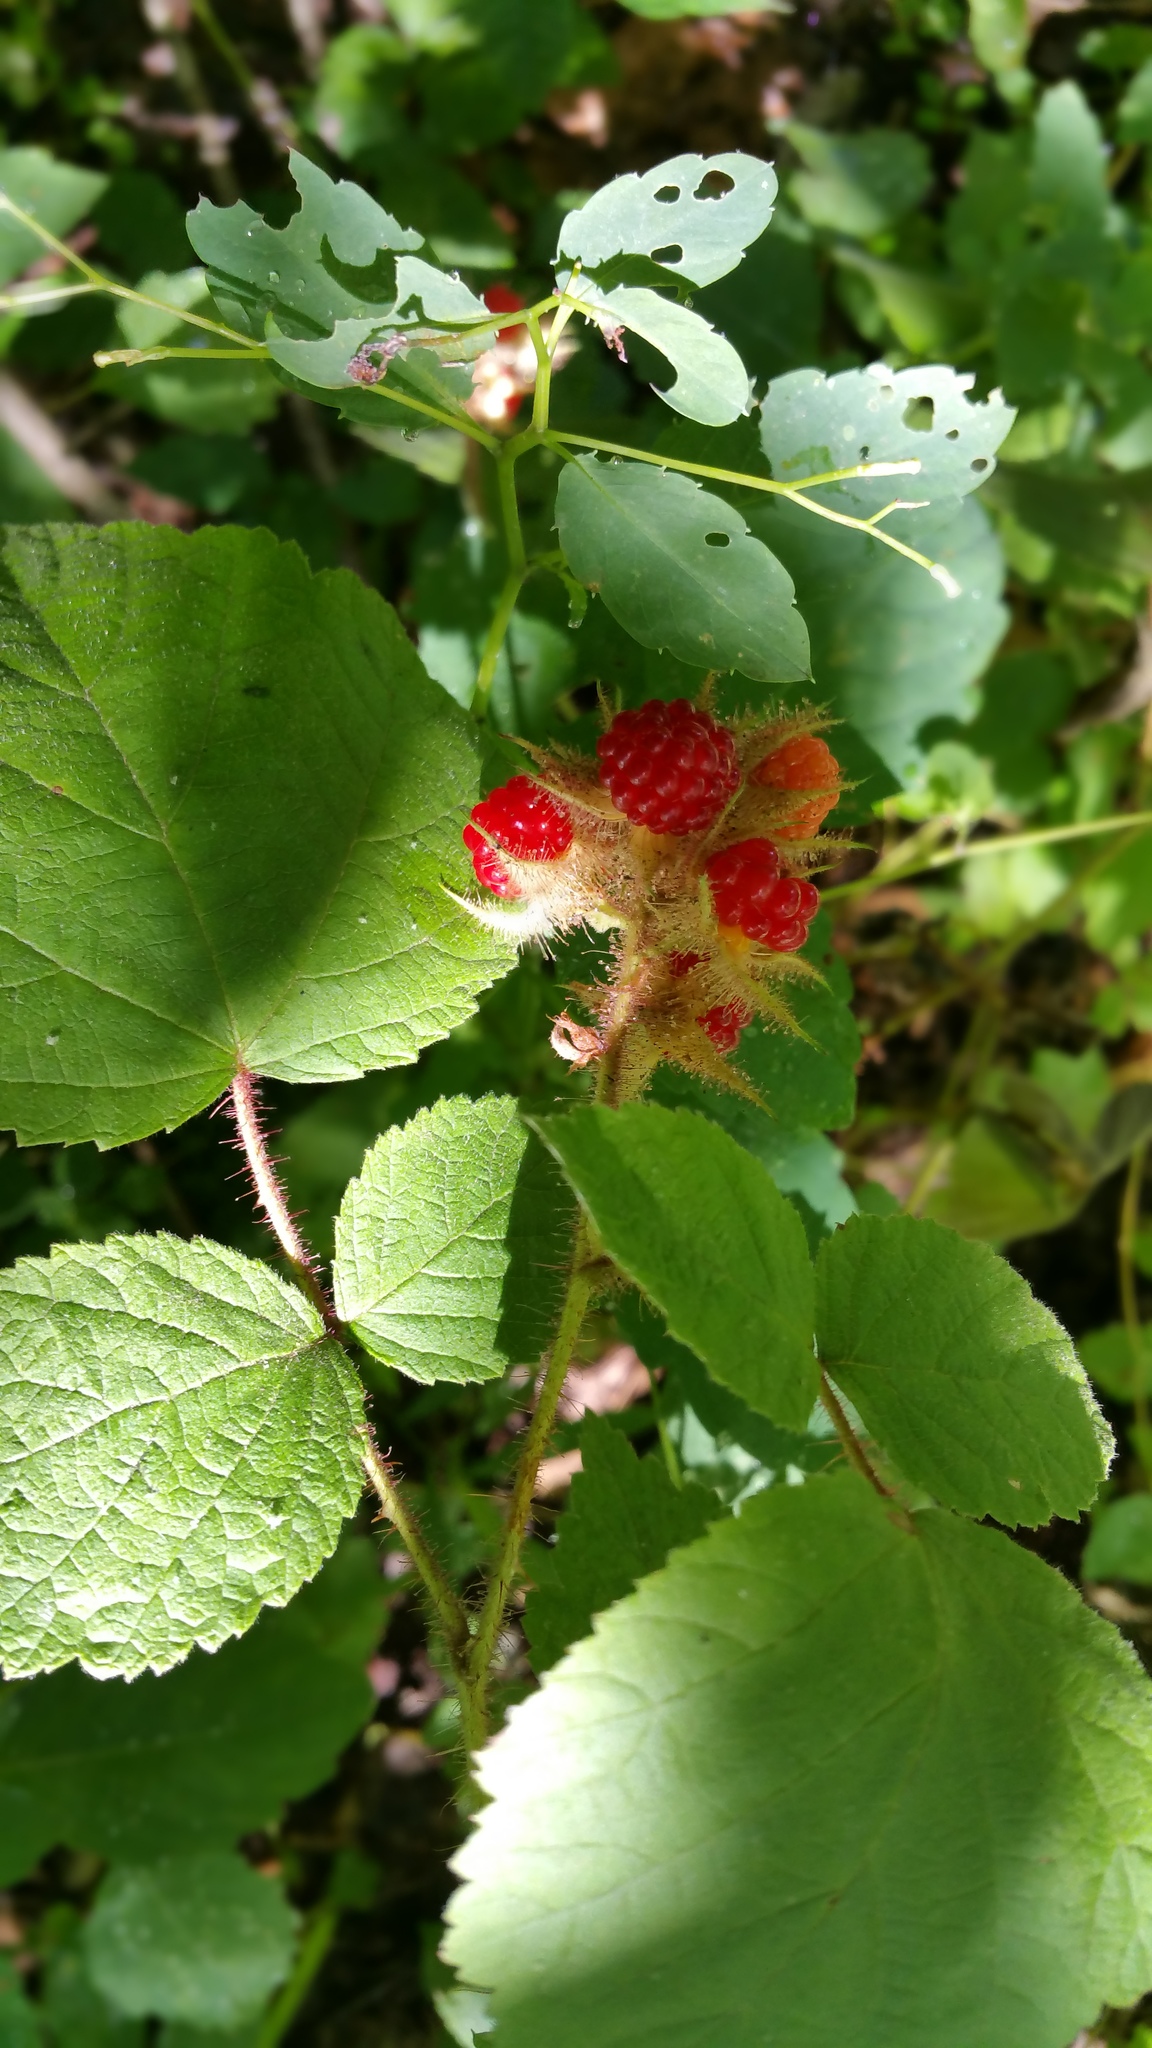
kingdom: Plantae
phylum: Tracheophyta
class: Magnoliopsida
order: Rosales
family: Rosaceae
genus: Rubus
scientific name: Rubus phoenicolasius
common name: Japanese wineberry
